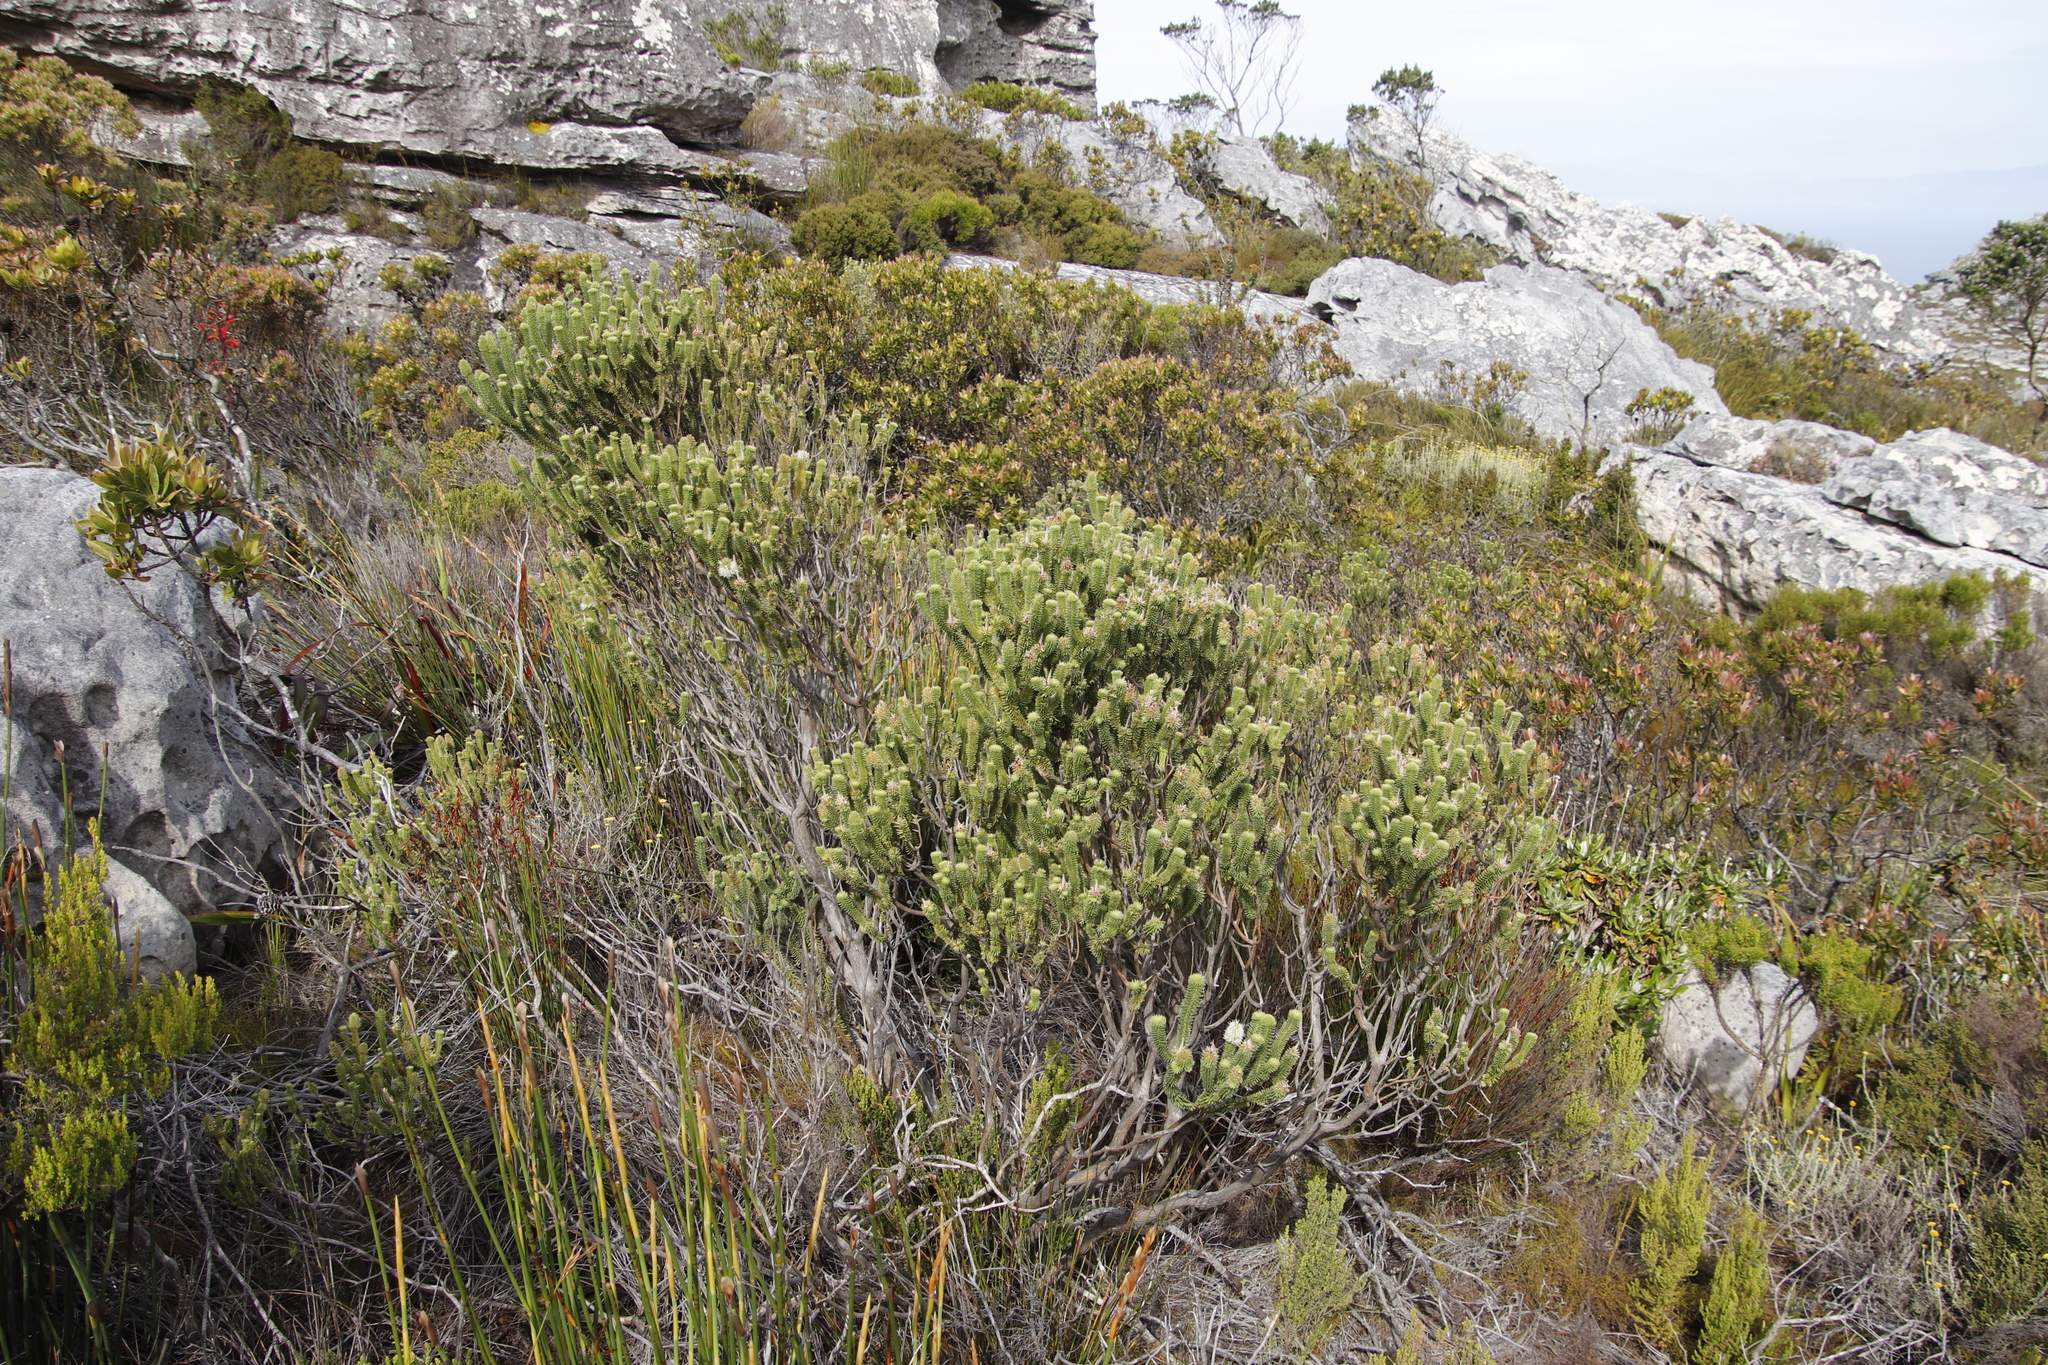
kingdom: Plantae
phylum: Tracheophyta
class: Magnoliopsida
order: Lamiales
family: Stilbaceae
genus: Stilbe
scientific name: Stilbe vestita
